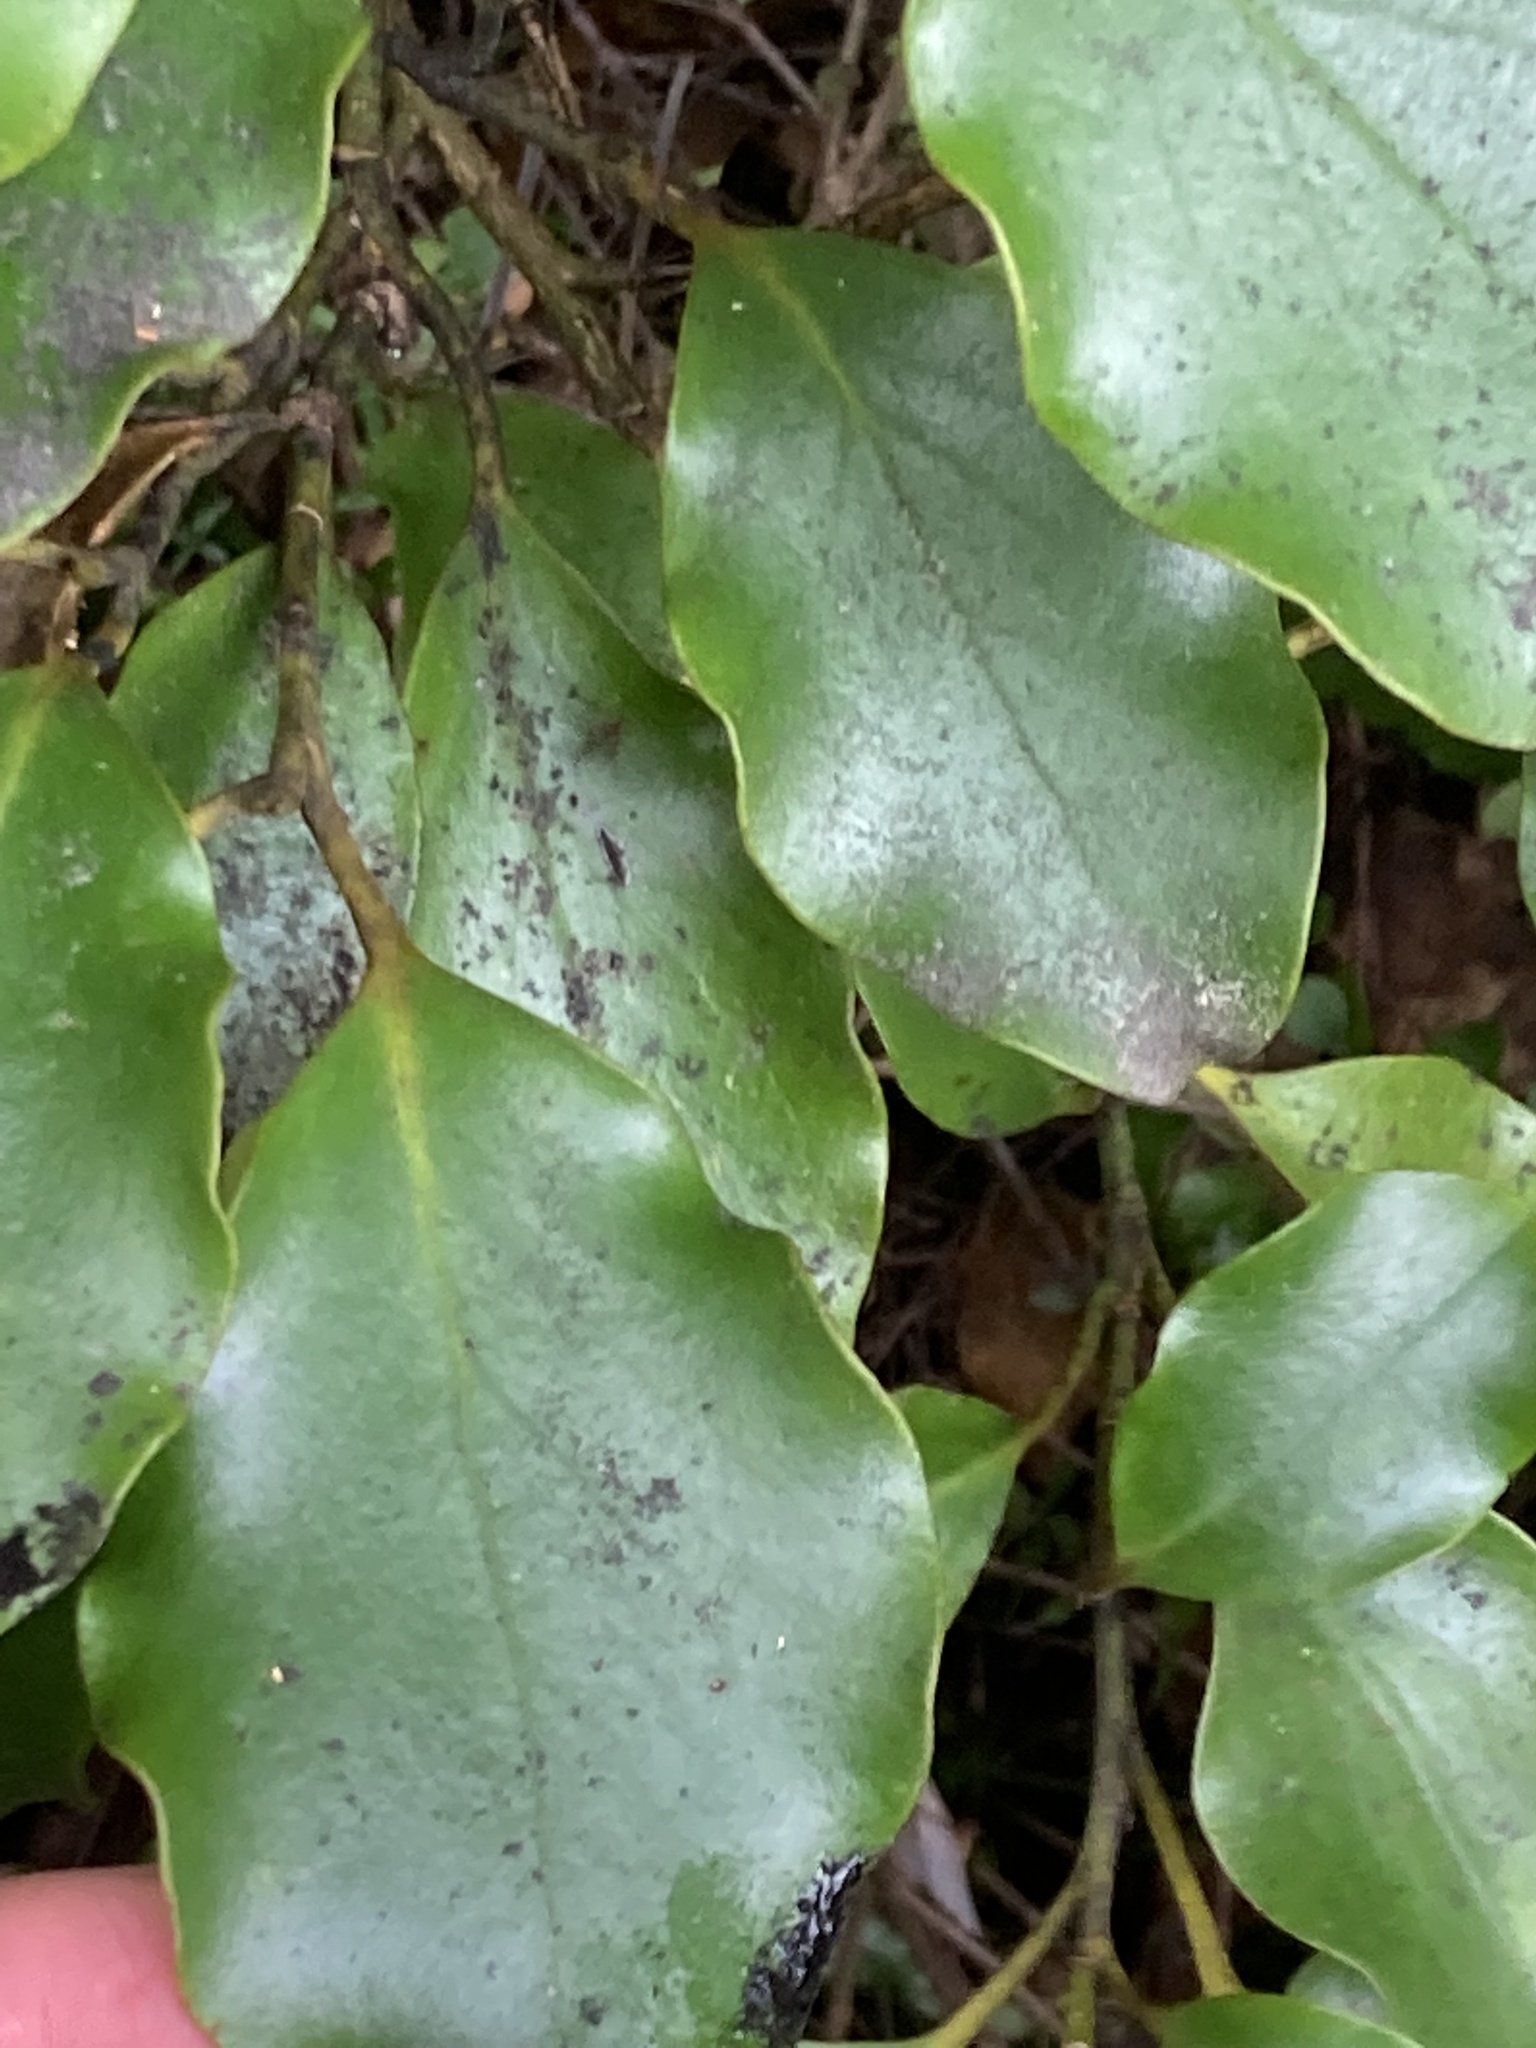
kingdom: Plantae
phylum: Tracheophyta
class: Magnoliopsida
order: Apiales
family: Griseliniaceae
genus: Griselinia
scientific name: Griselinia littoralis
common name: New zealand broadleaf
